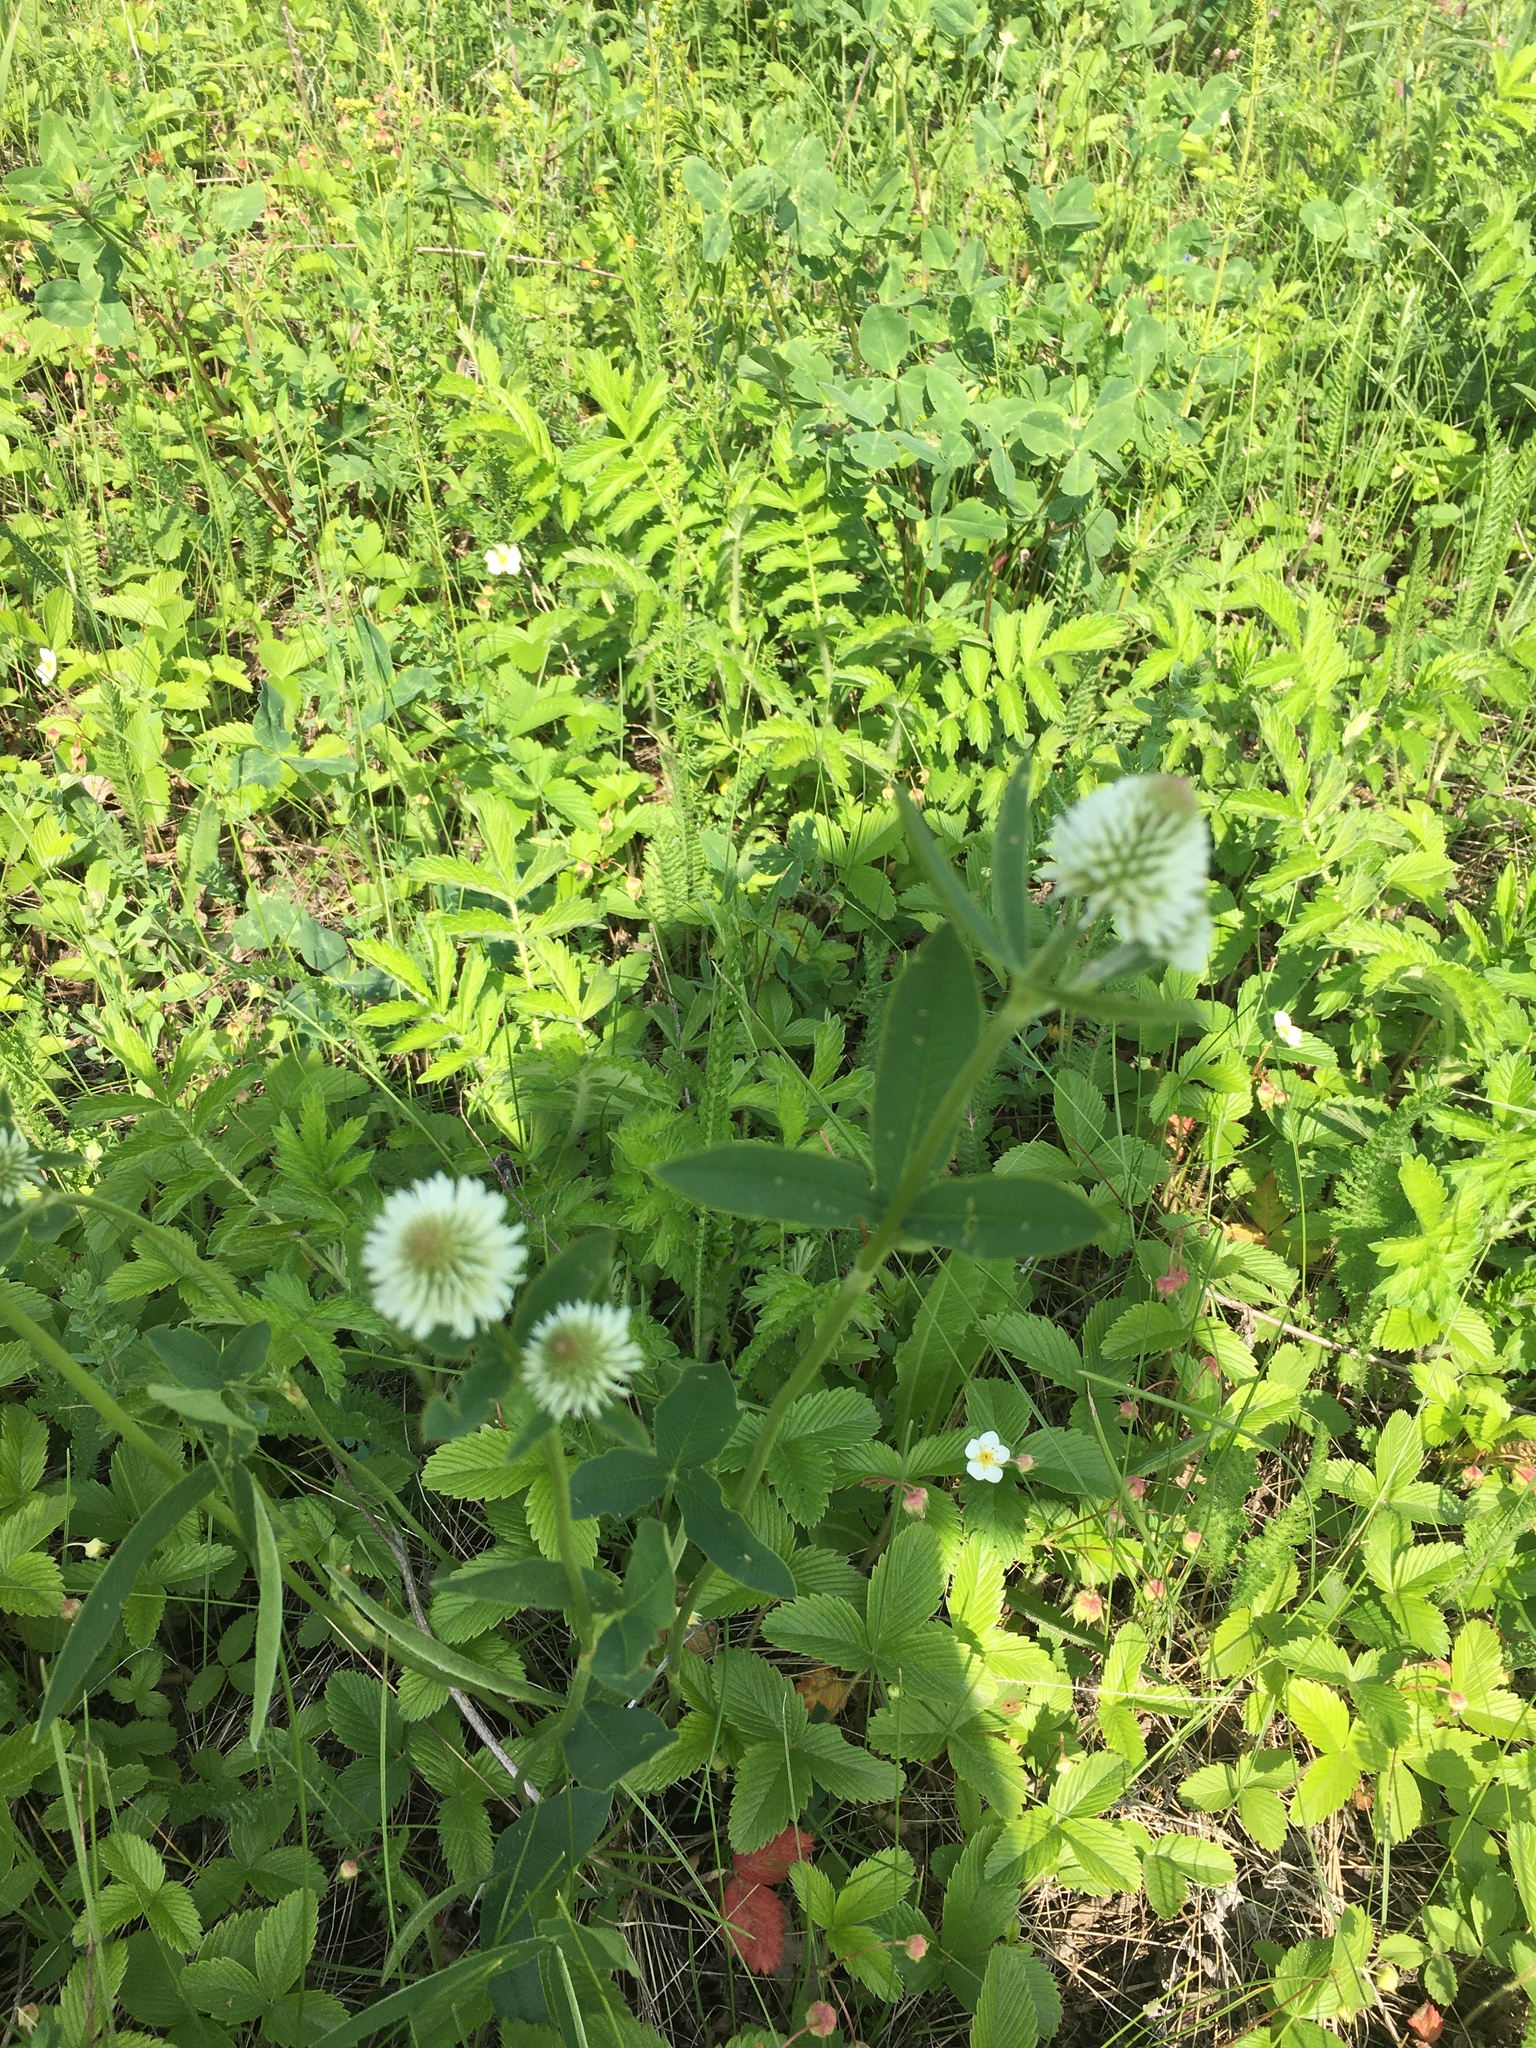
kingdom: Plantae
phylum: Tracheophyta
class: Magnoliopsida
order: Fabales
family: Fabaceae
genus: Trifolium
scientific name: Trifolium montanum
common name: Mountain clover
